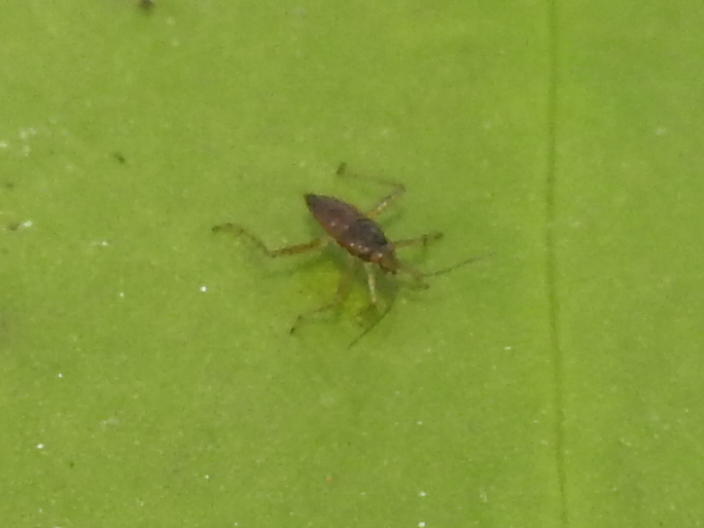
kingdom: Animalia
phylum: Arthropoda
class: Insecta
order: Hemiptera
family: Mesoveliidae
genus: Mesovelia
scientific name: Mesovelia
